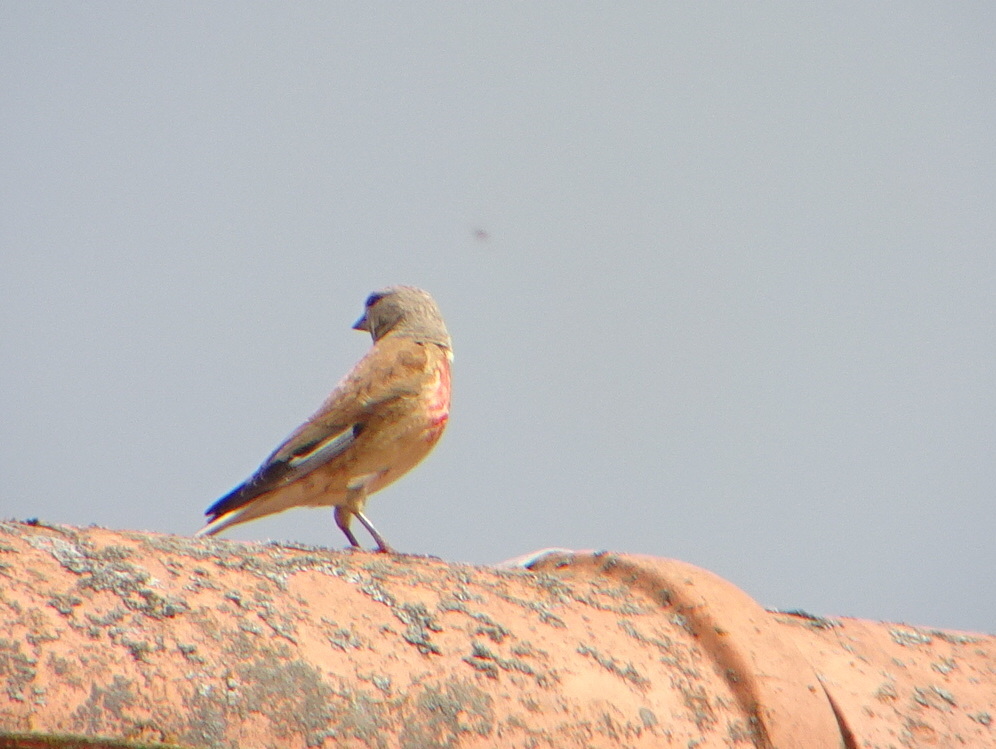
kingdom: Animalia
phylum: Chordata
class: Aves
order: Passeriformes
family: Fringillidae
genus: Linaria
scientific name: Linaria cannabina
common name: Common linnet
